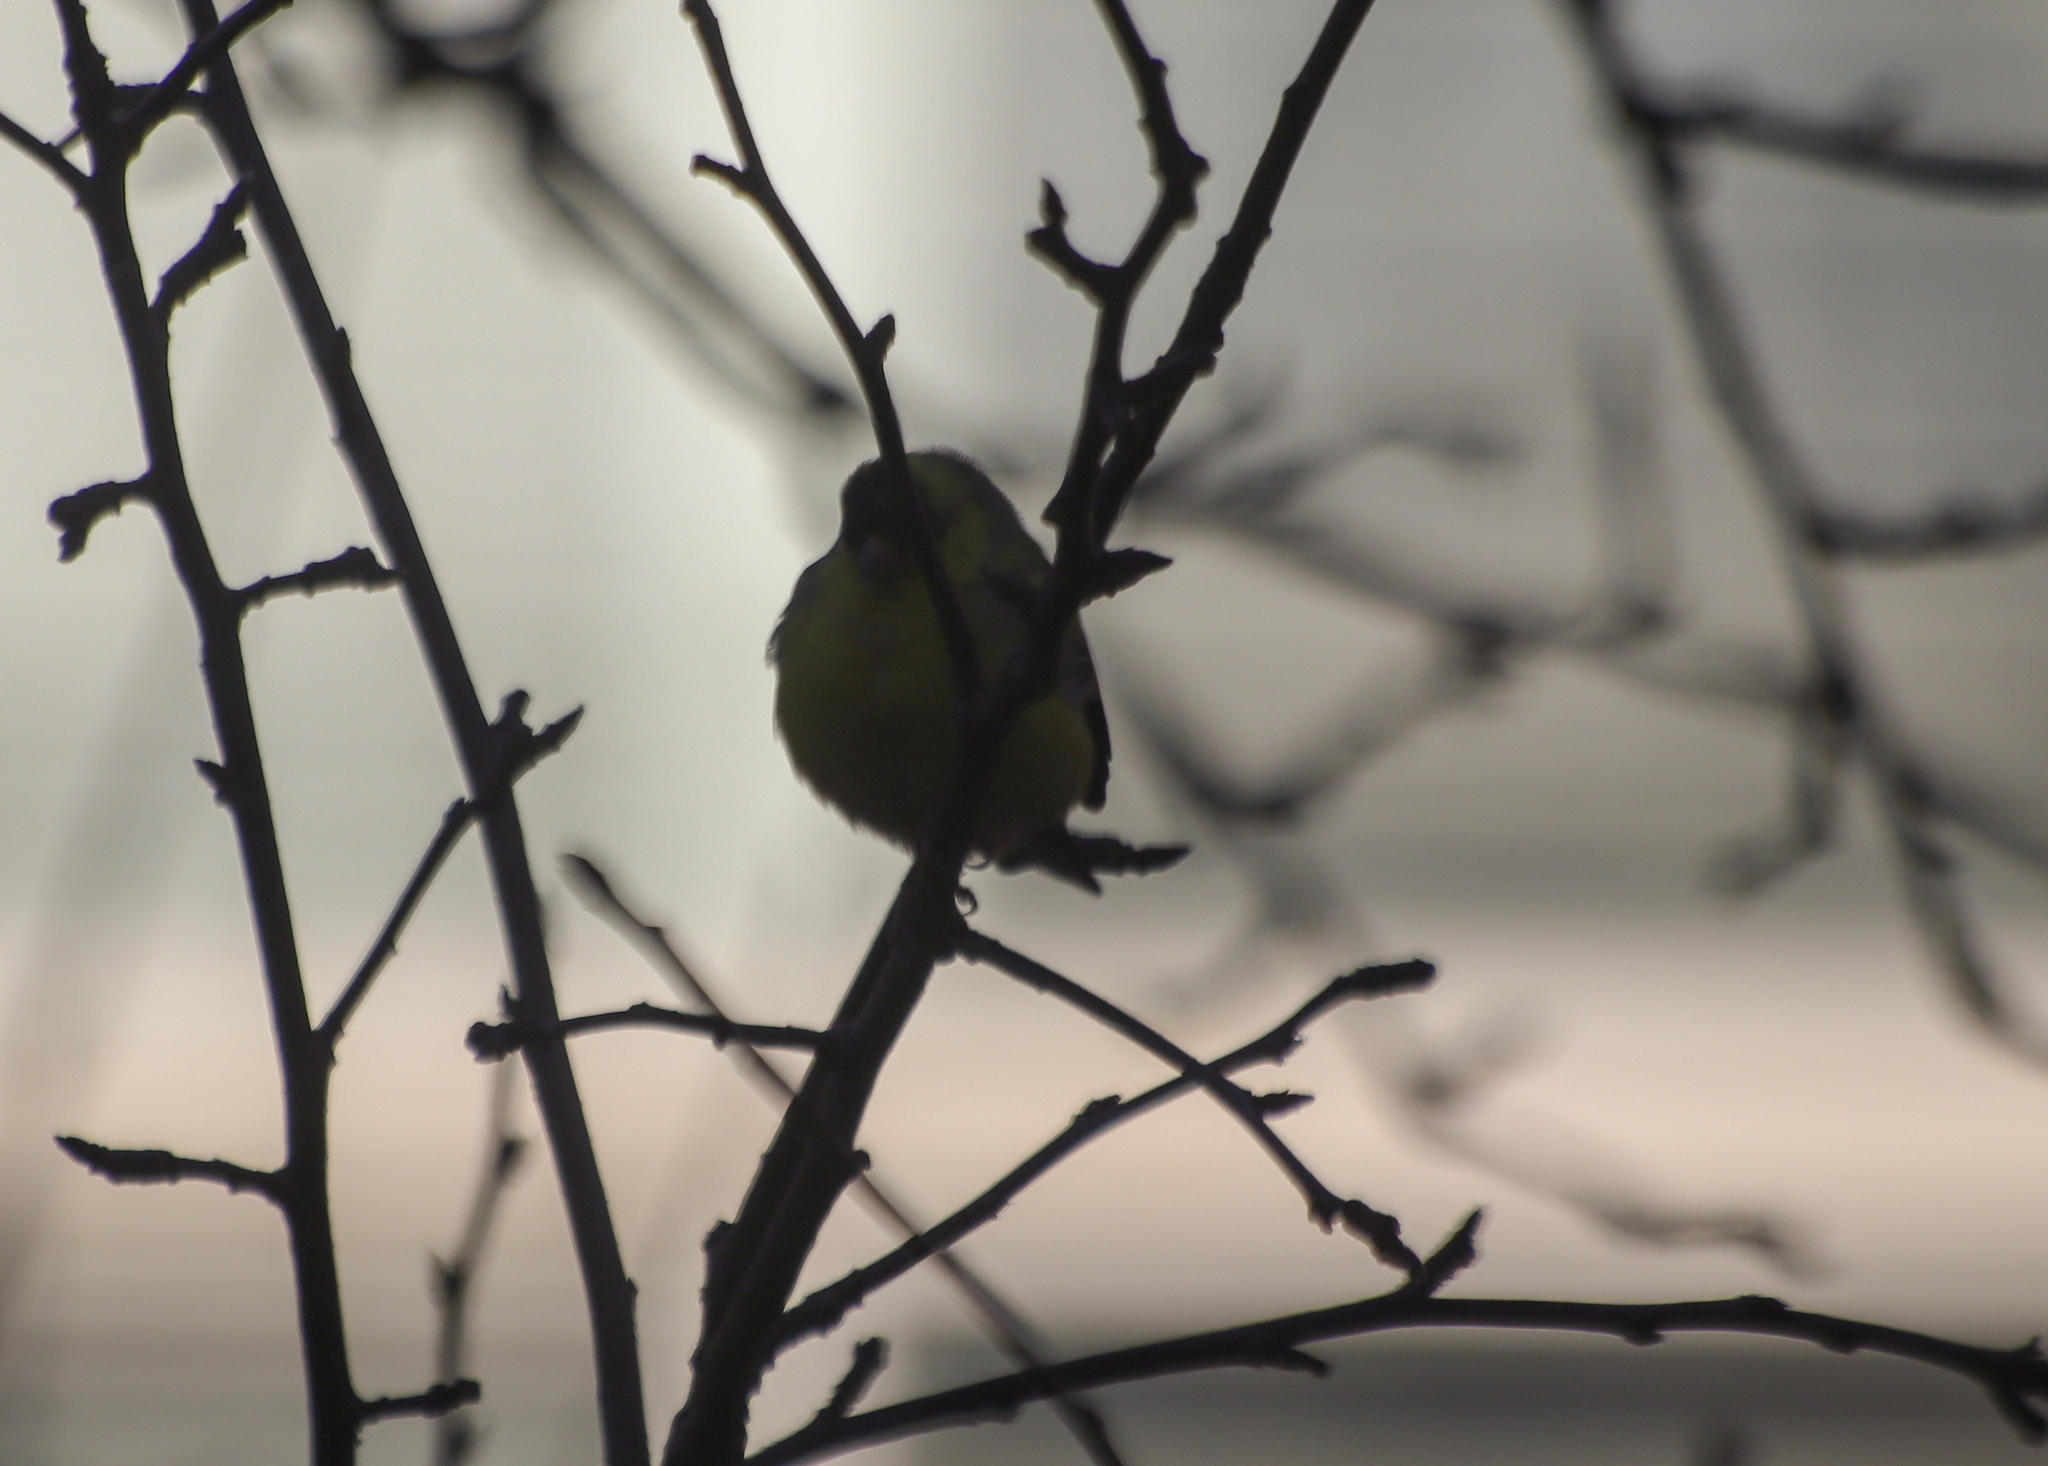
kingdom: Animalia
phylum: Chordata
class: Aves
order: Passeriformes
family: Fringillidae
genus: Spinus
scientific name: Spinus tristis
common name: American goldfinch
